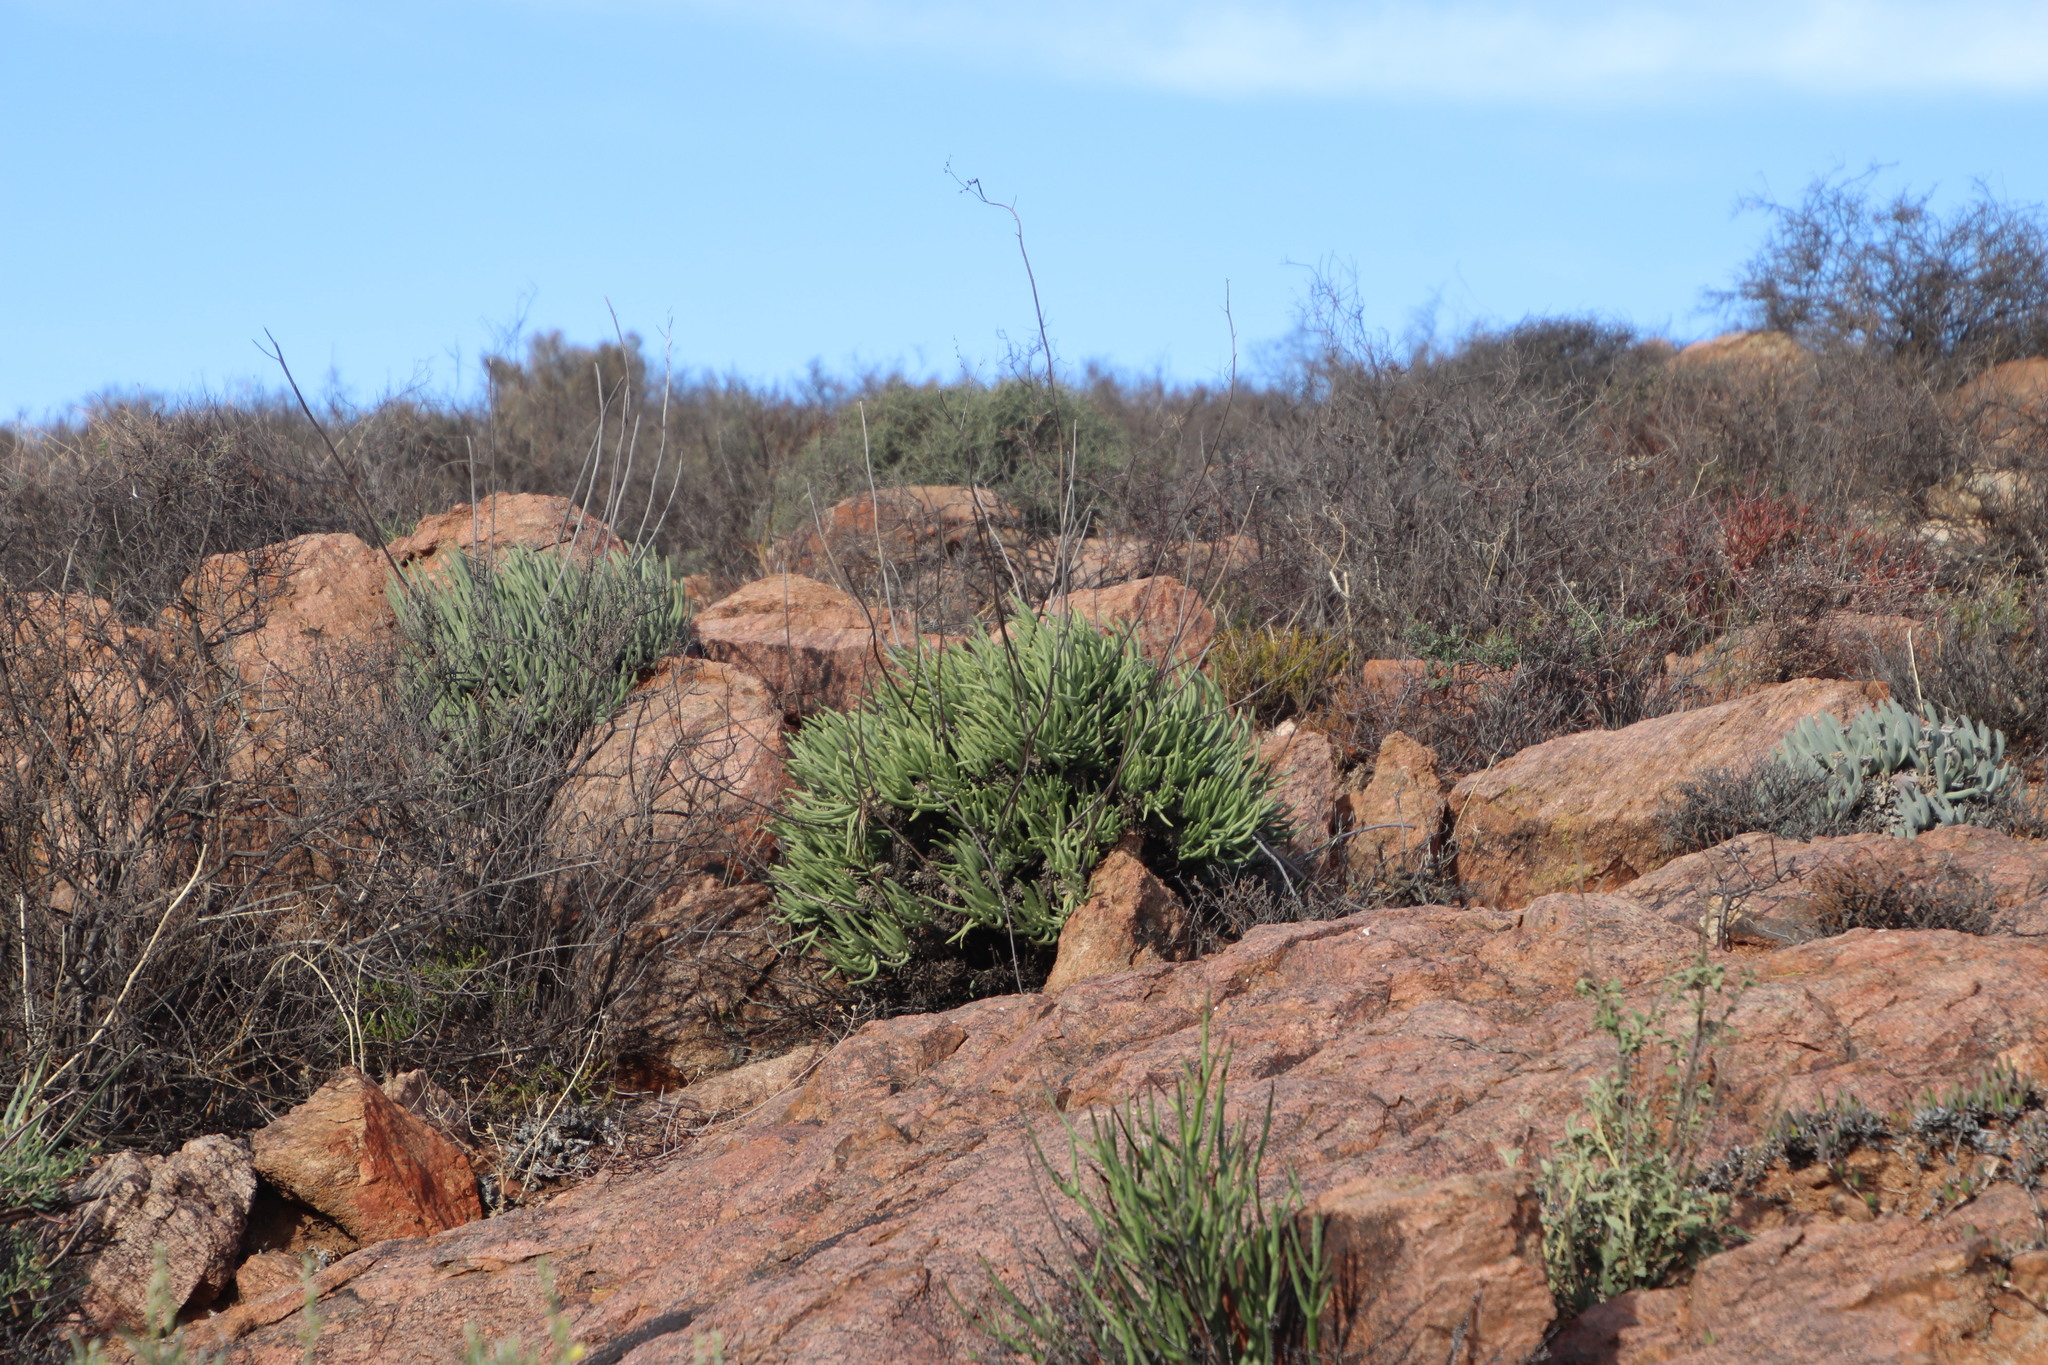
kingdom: Plantae
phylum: Tracheophyta
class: Magnoliopsida
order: Saxifragales
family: Crassulaceae
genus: Tylecodon
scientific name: Tylecodon wallichii
